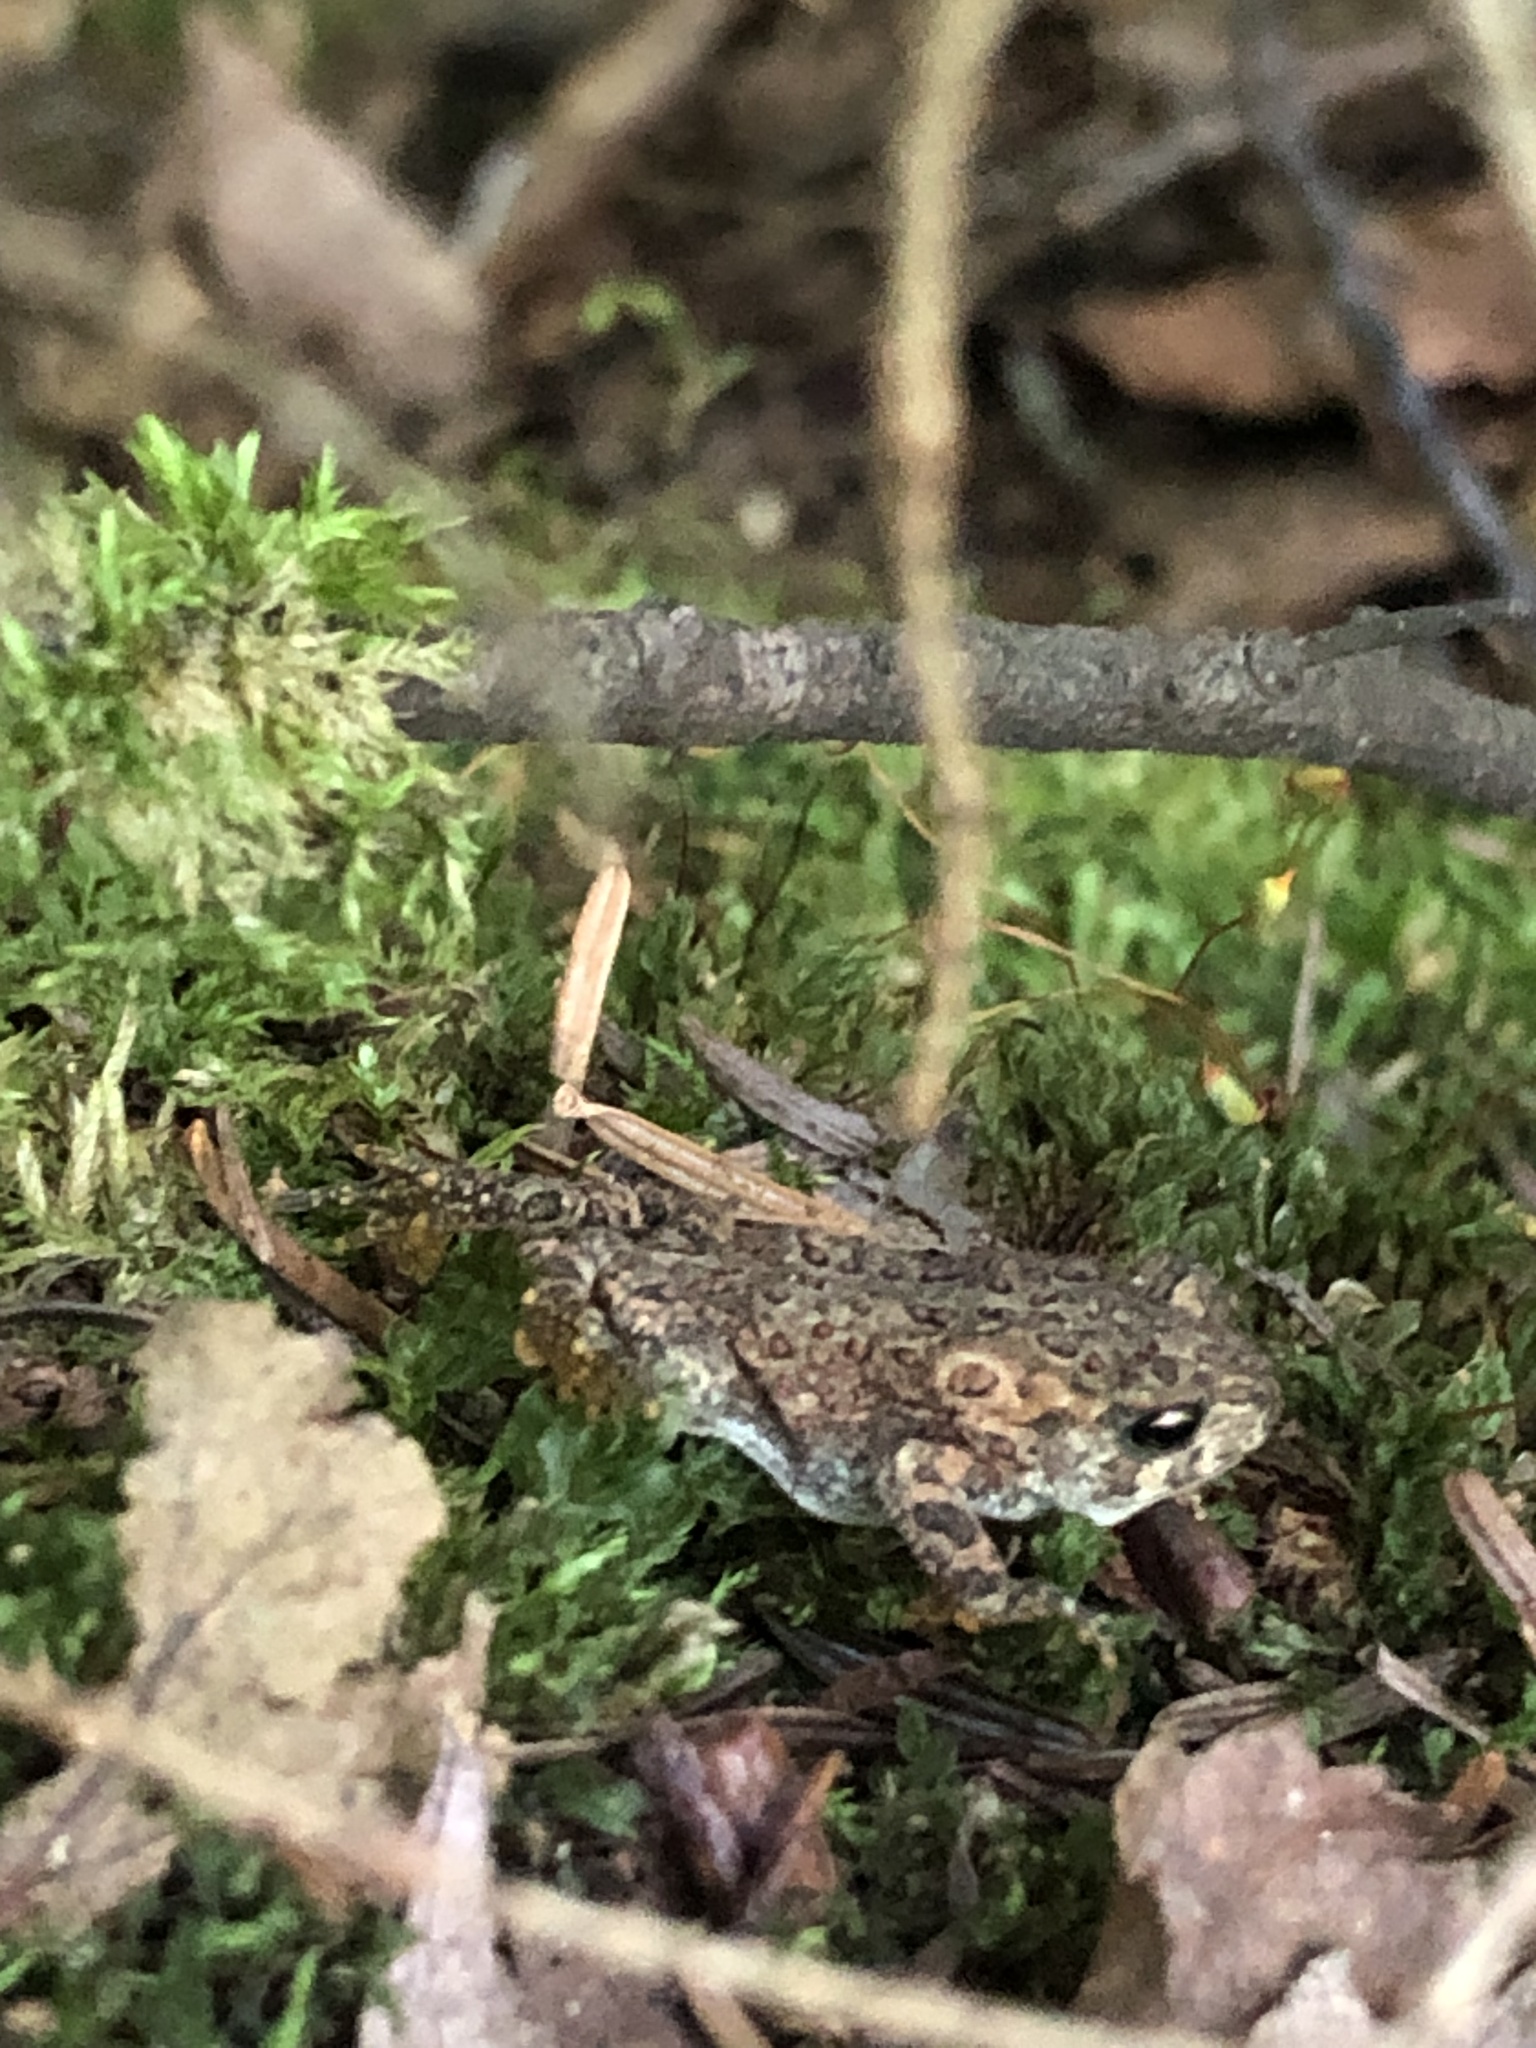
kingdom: Animalia
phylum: Chordata
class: Amphibia
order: Anura
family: Bufonidae
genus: Anaxyrus
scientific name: Anaxyrus americanus
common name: American toad
